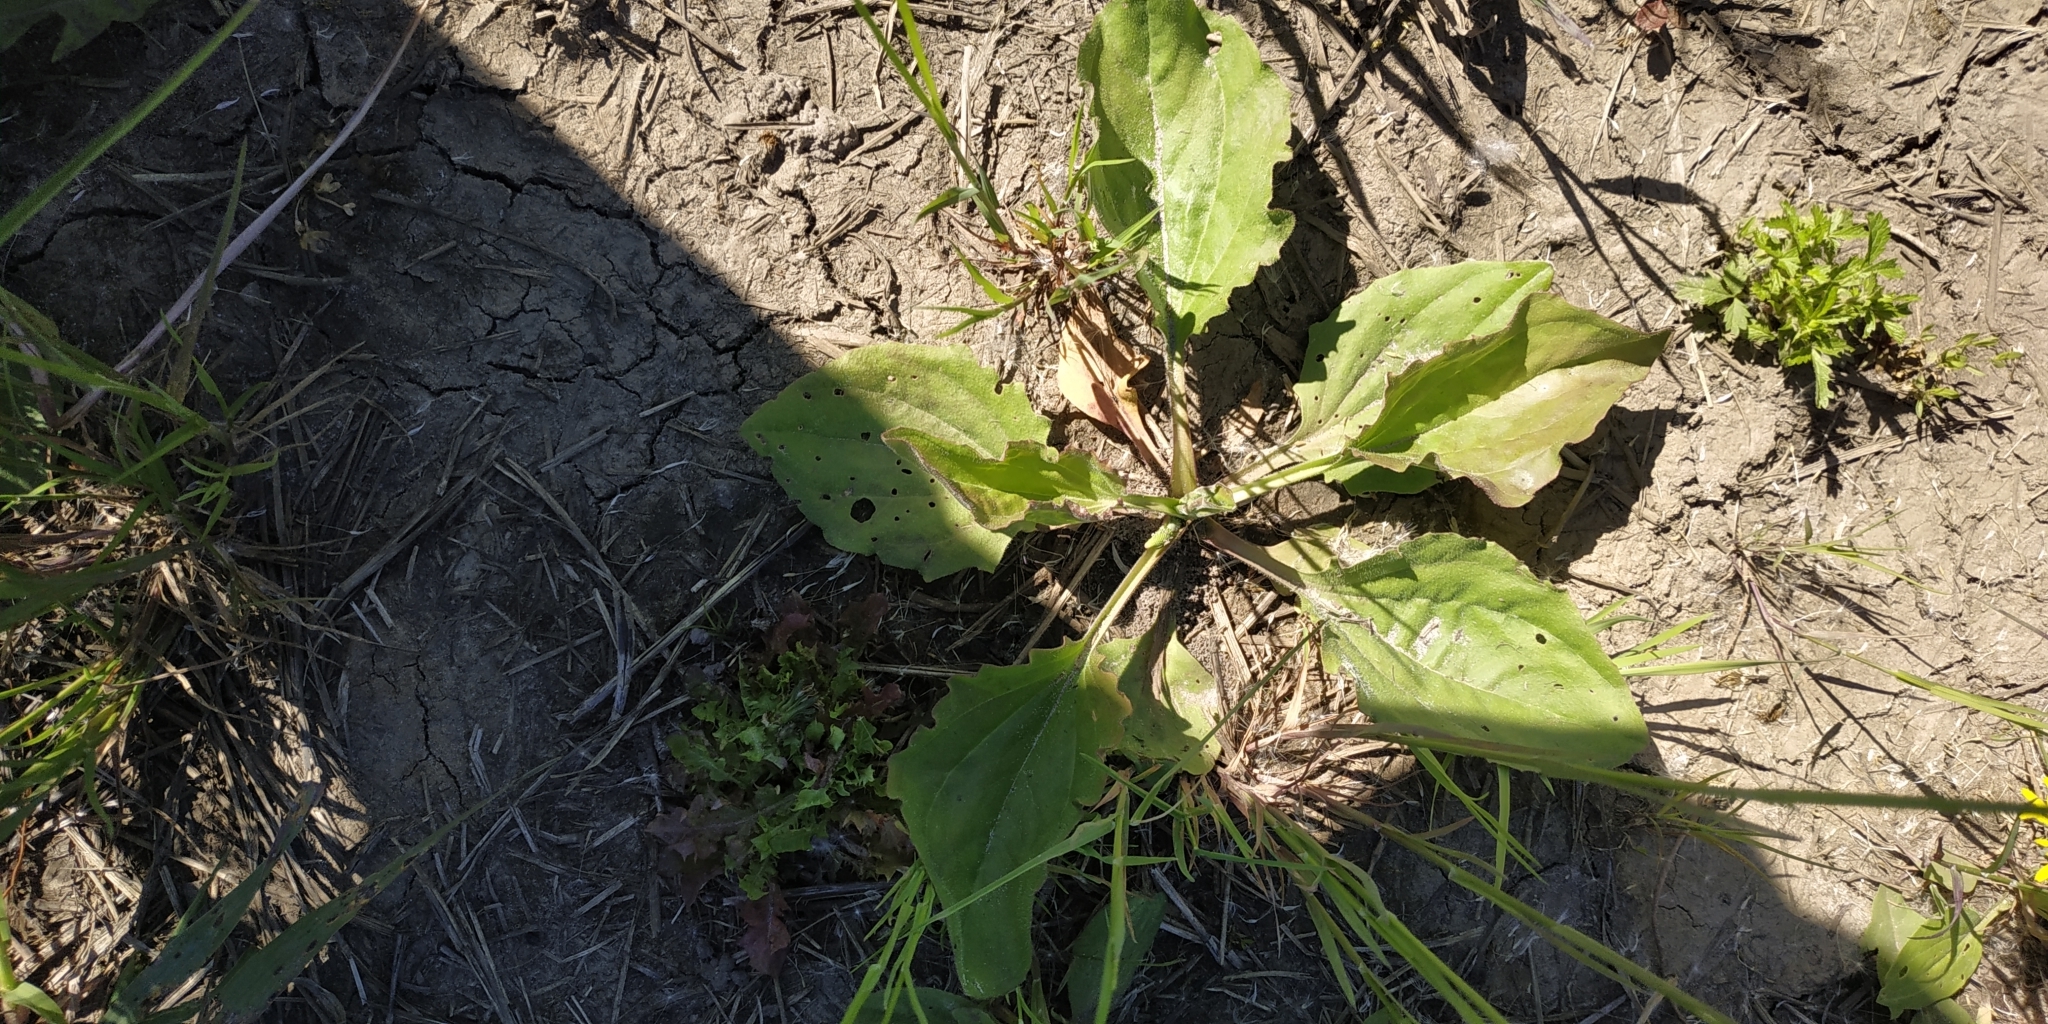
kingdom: Plantae
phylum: Tracheophyta
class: Magnoliopsida
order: Lamiales
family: Plantaginaceae
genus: Plantago
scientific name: Plantago major
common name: Common plantain
